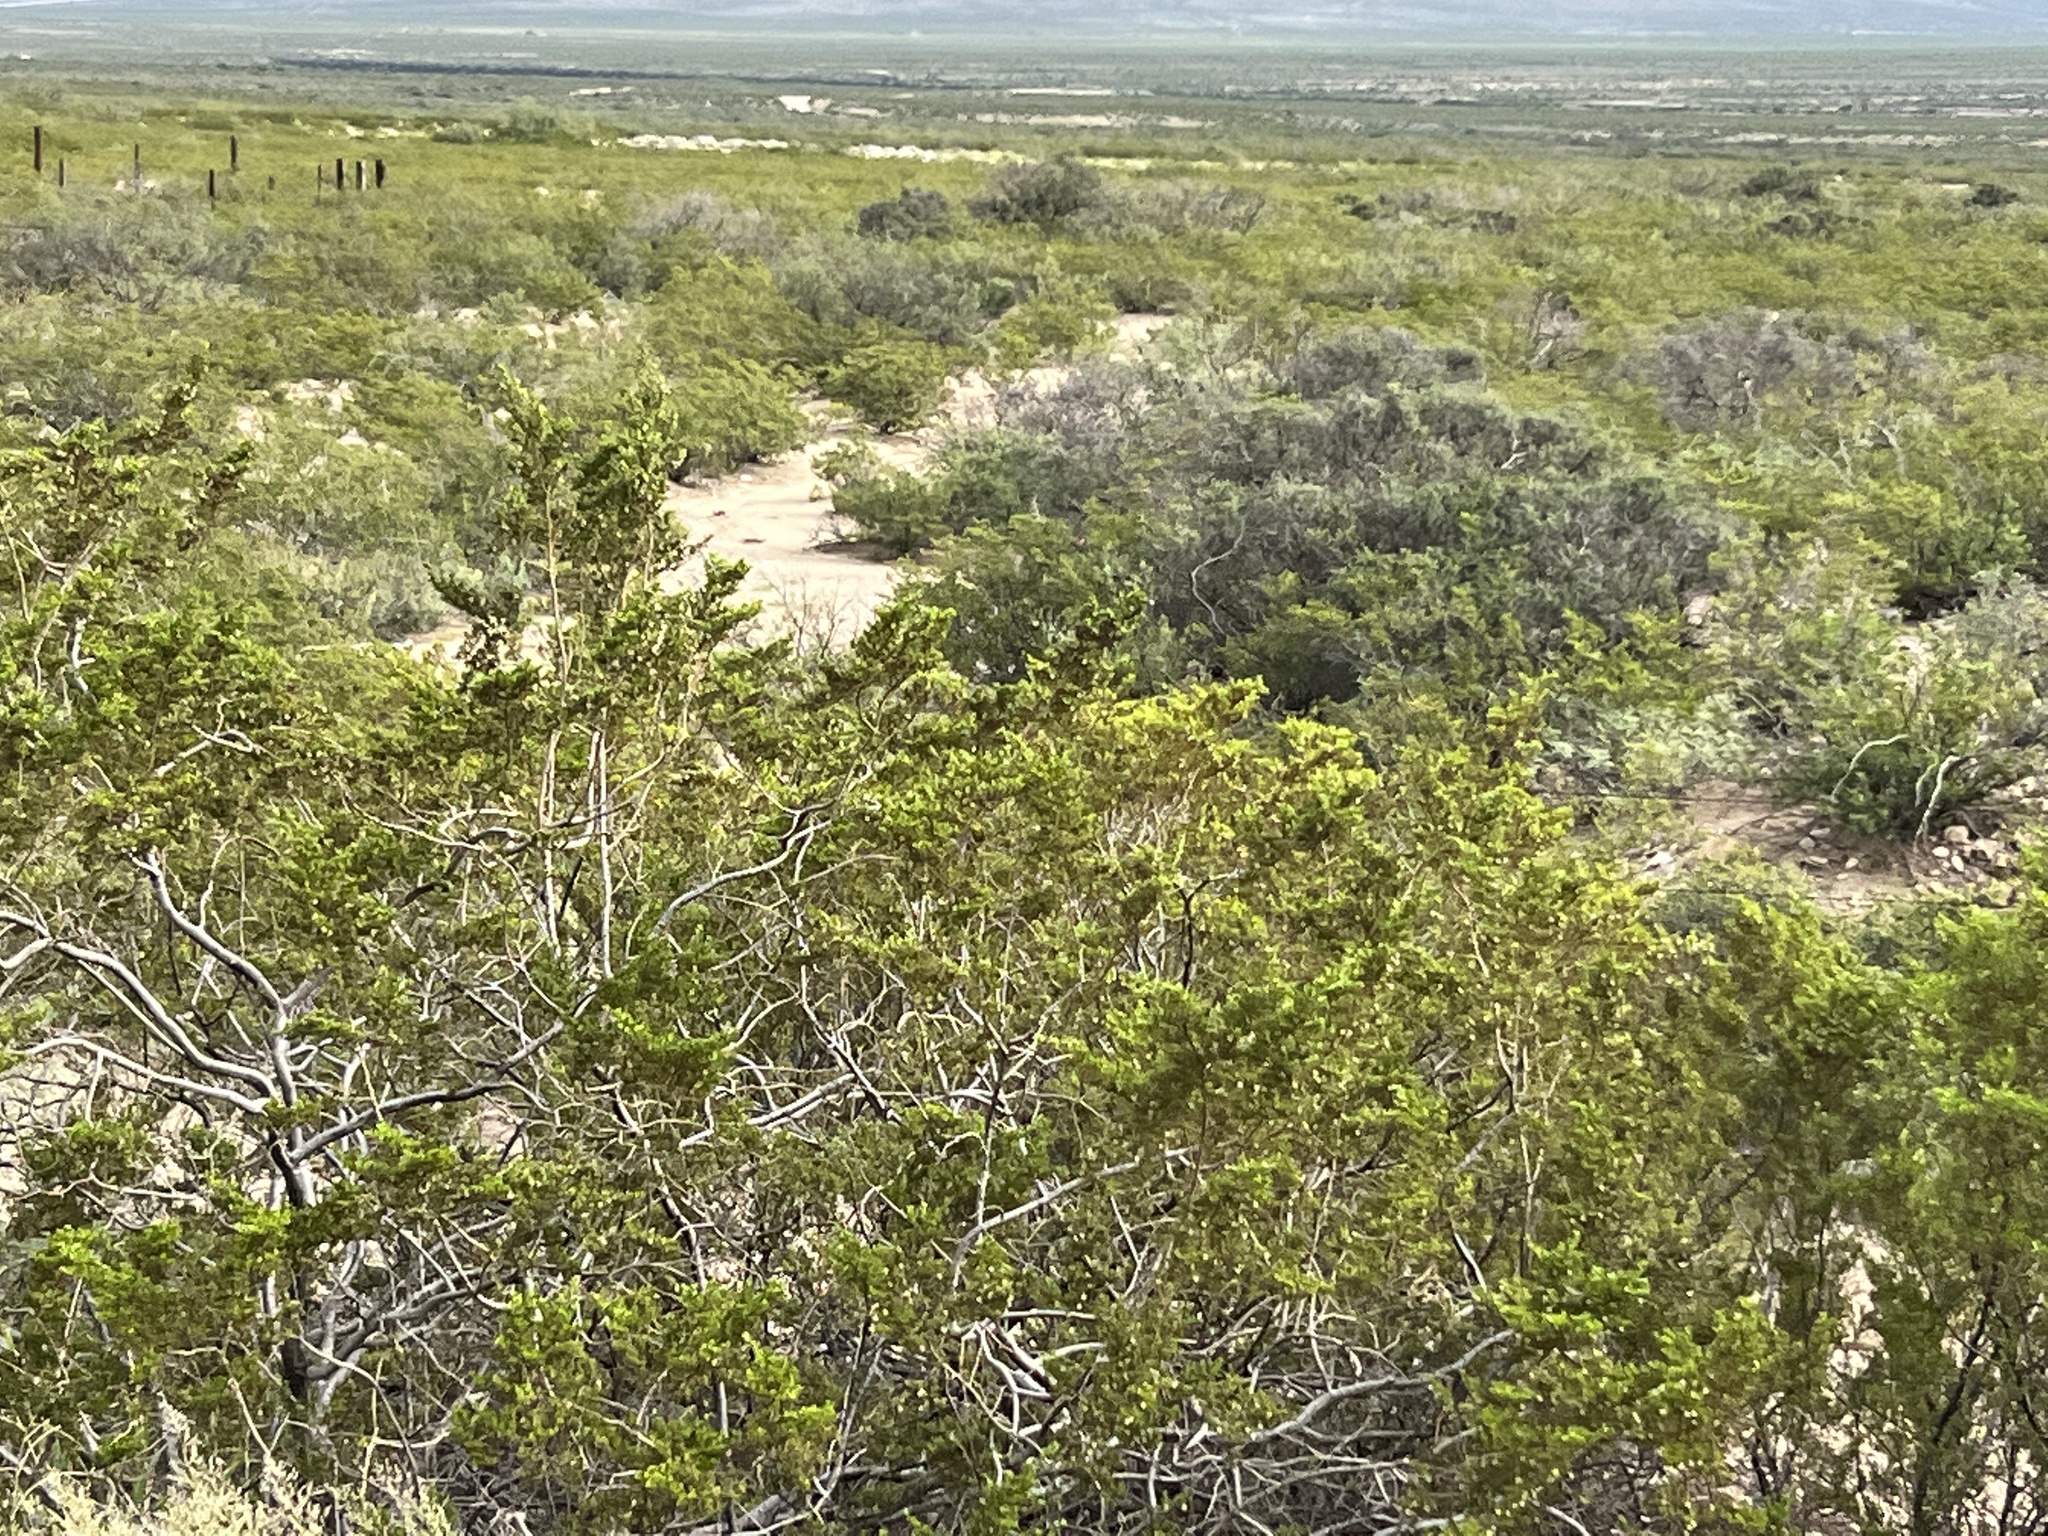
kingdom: Plantae
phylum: Tracheophyta
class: Magnoliopsida
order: Zygophyllales
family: Zygophyllaceae
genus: Larrea
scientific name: Larrea tridentata
